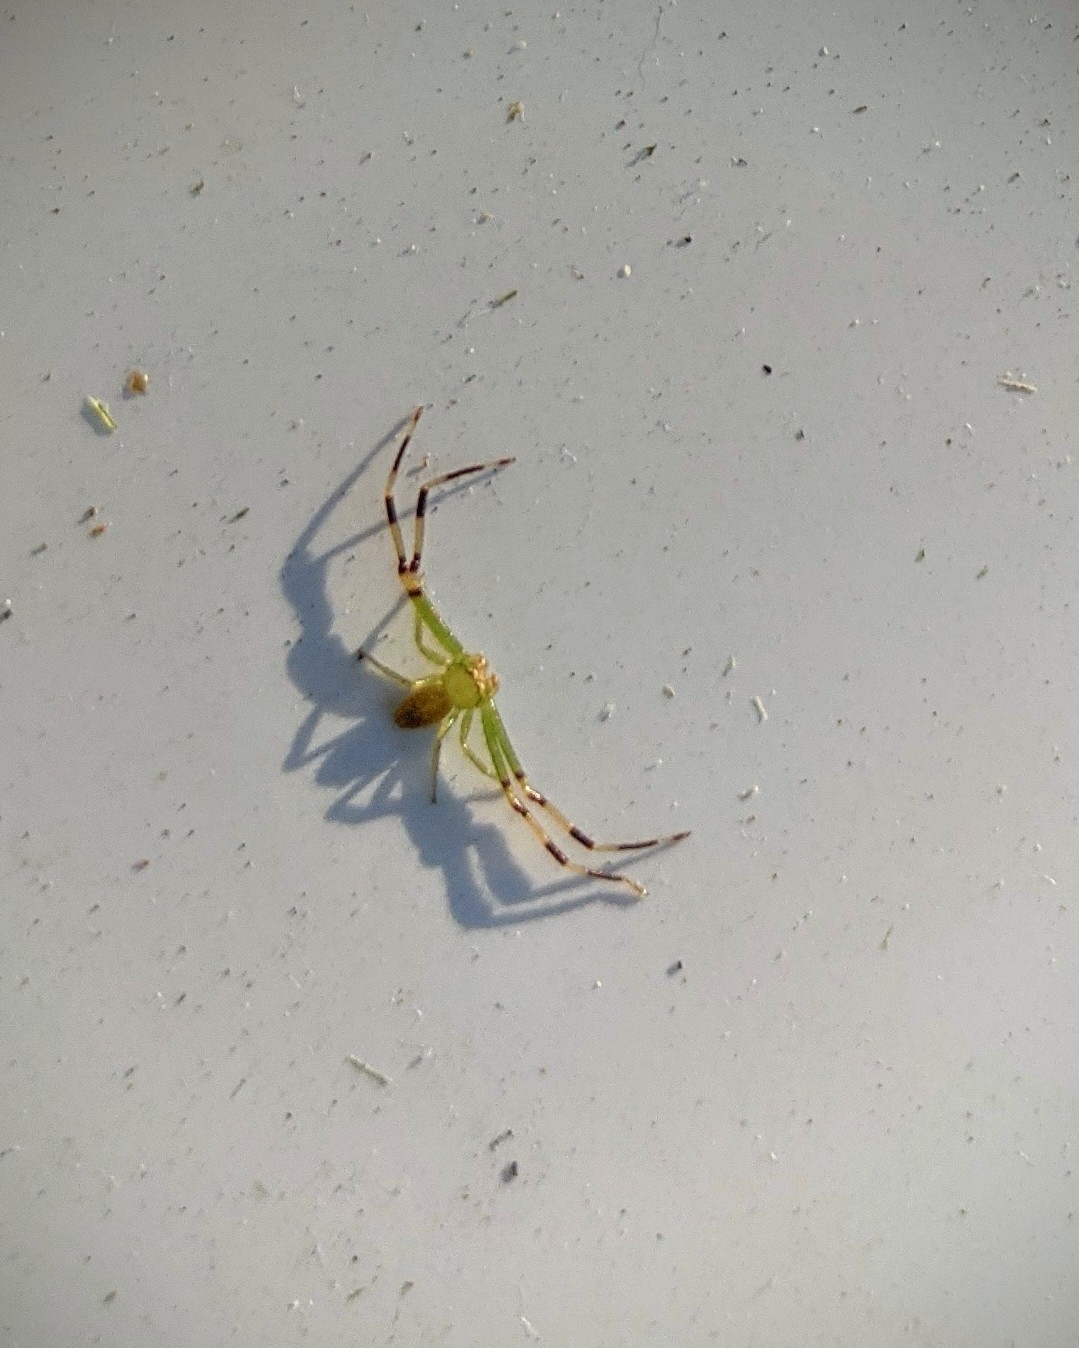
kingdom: Animalia
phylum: Arthropoda
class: Arachnida
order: Araneae
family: Thomisidae
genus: Misumessus
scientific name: Misumessus oblongus
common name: American green crab spider
